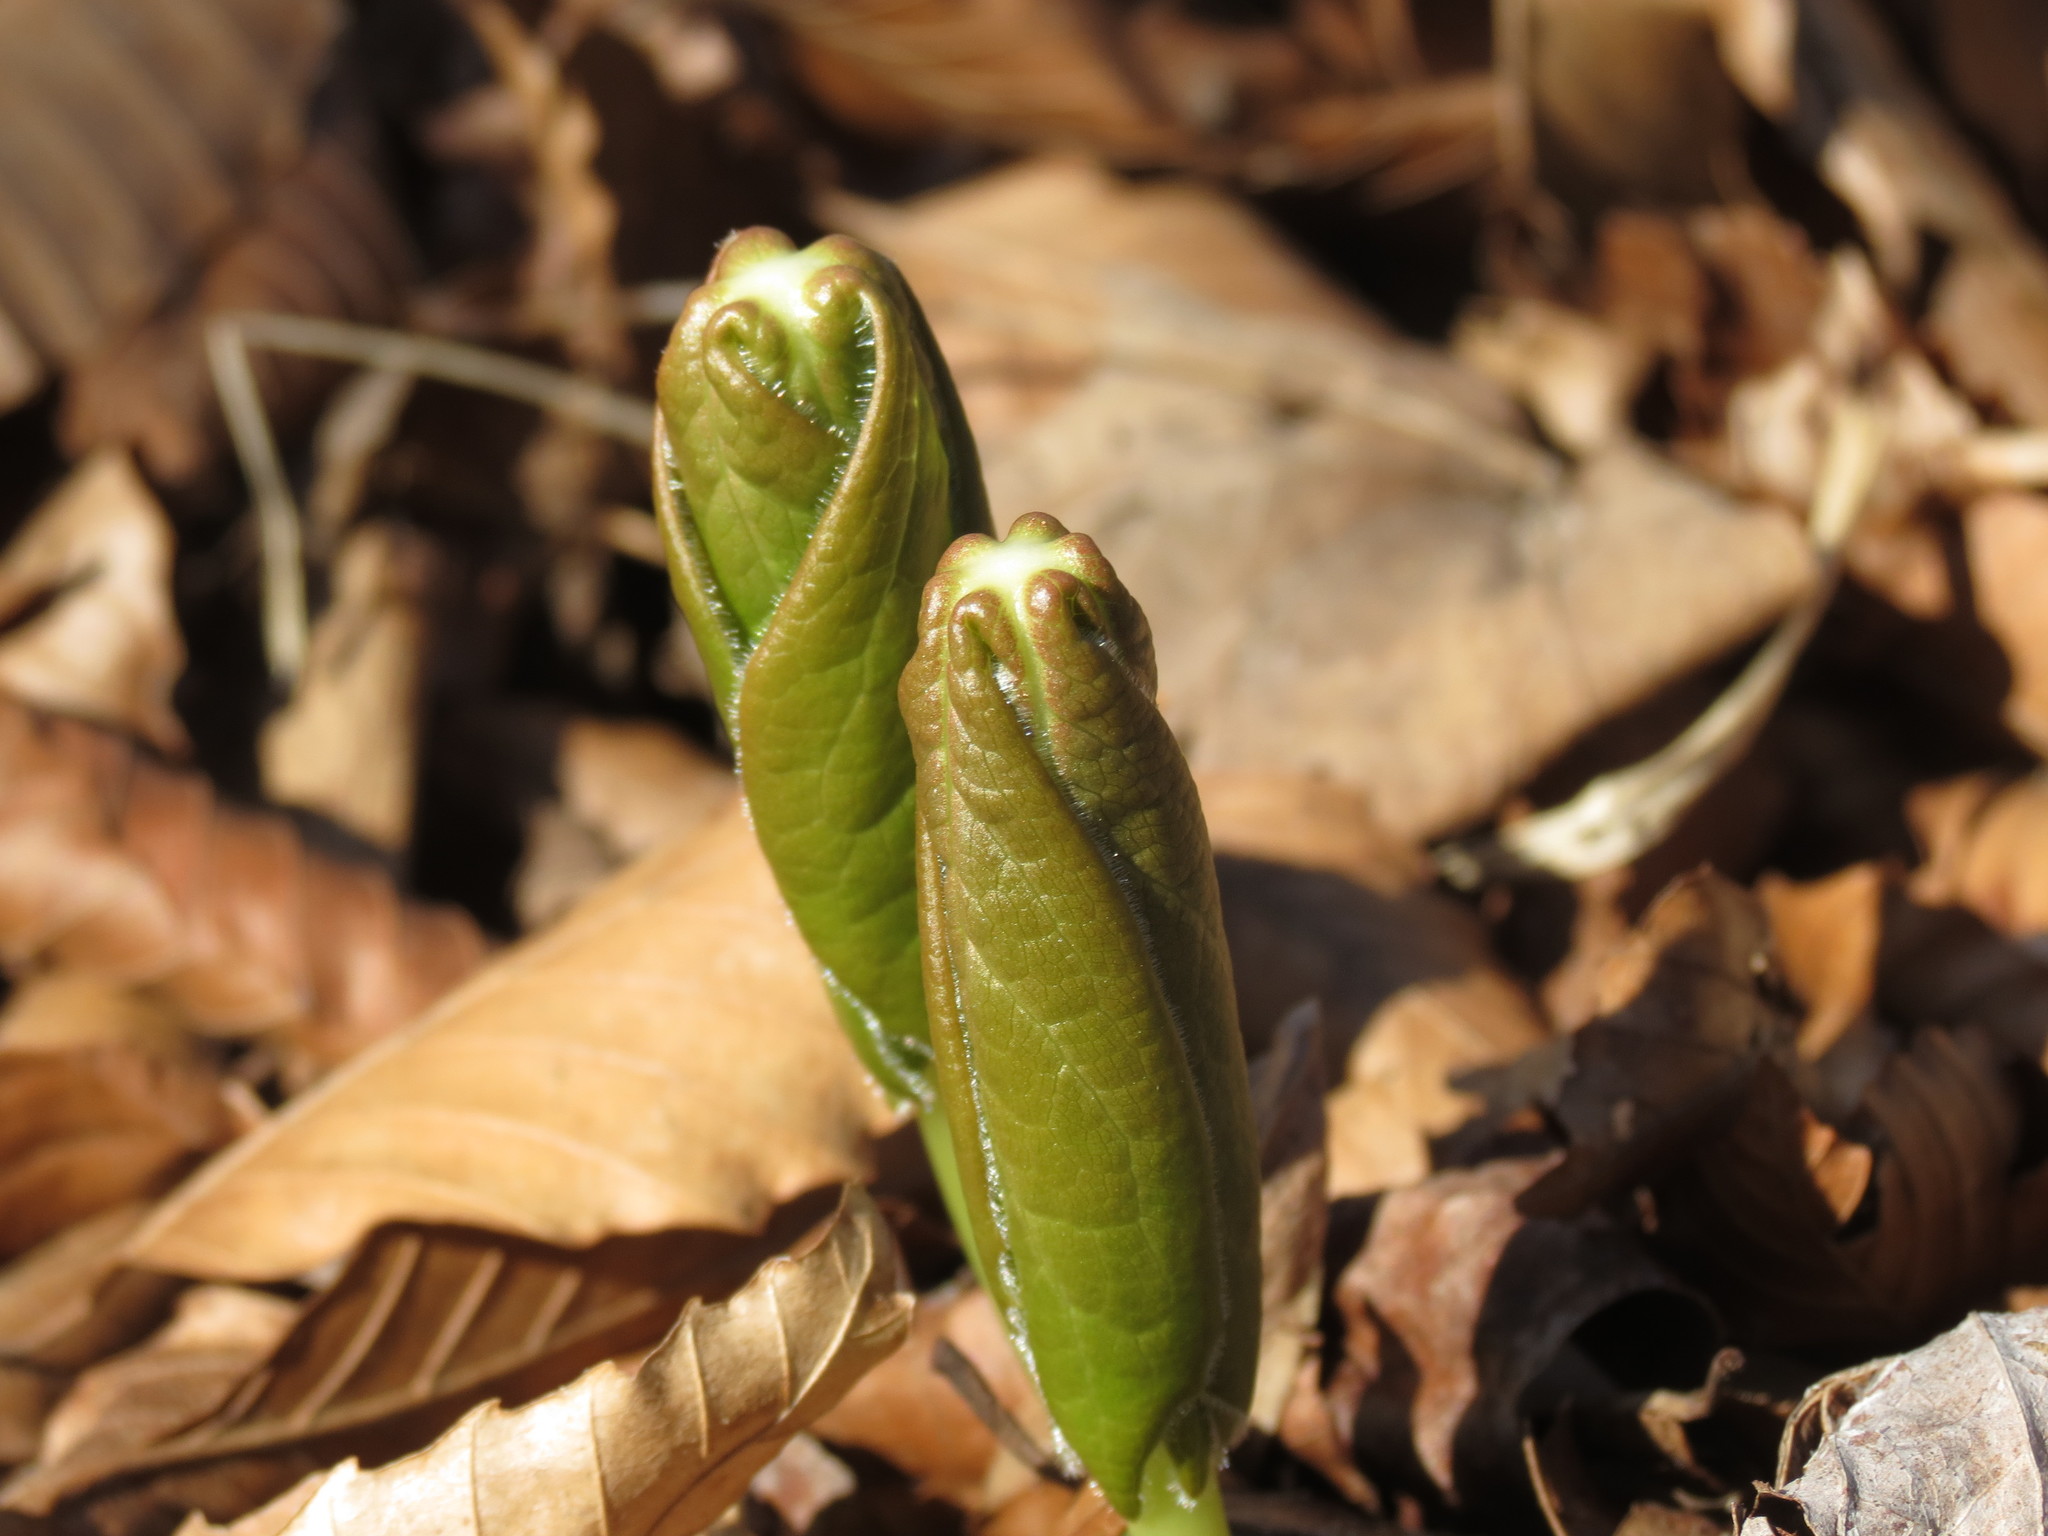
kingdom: Plantae
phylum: Tracheophyta
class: Magnoliopsida
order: Ranunculales
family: Berberidaceae
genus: Podophyllum
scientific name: Podophyllum peltatum
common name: Wild mandrake
